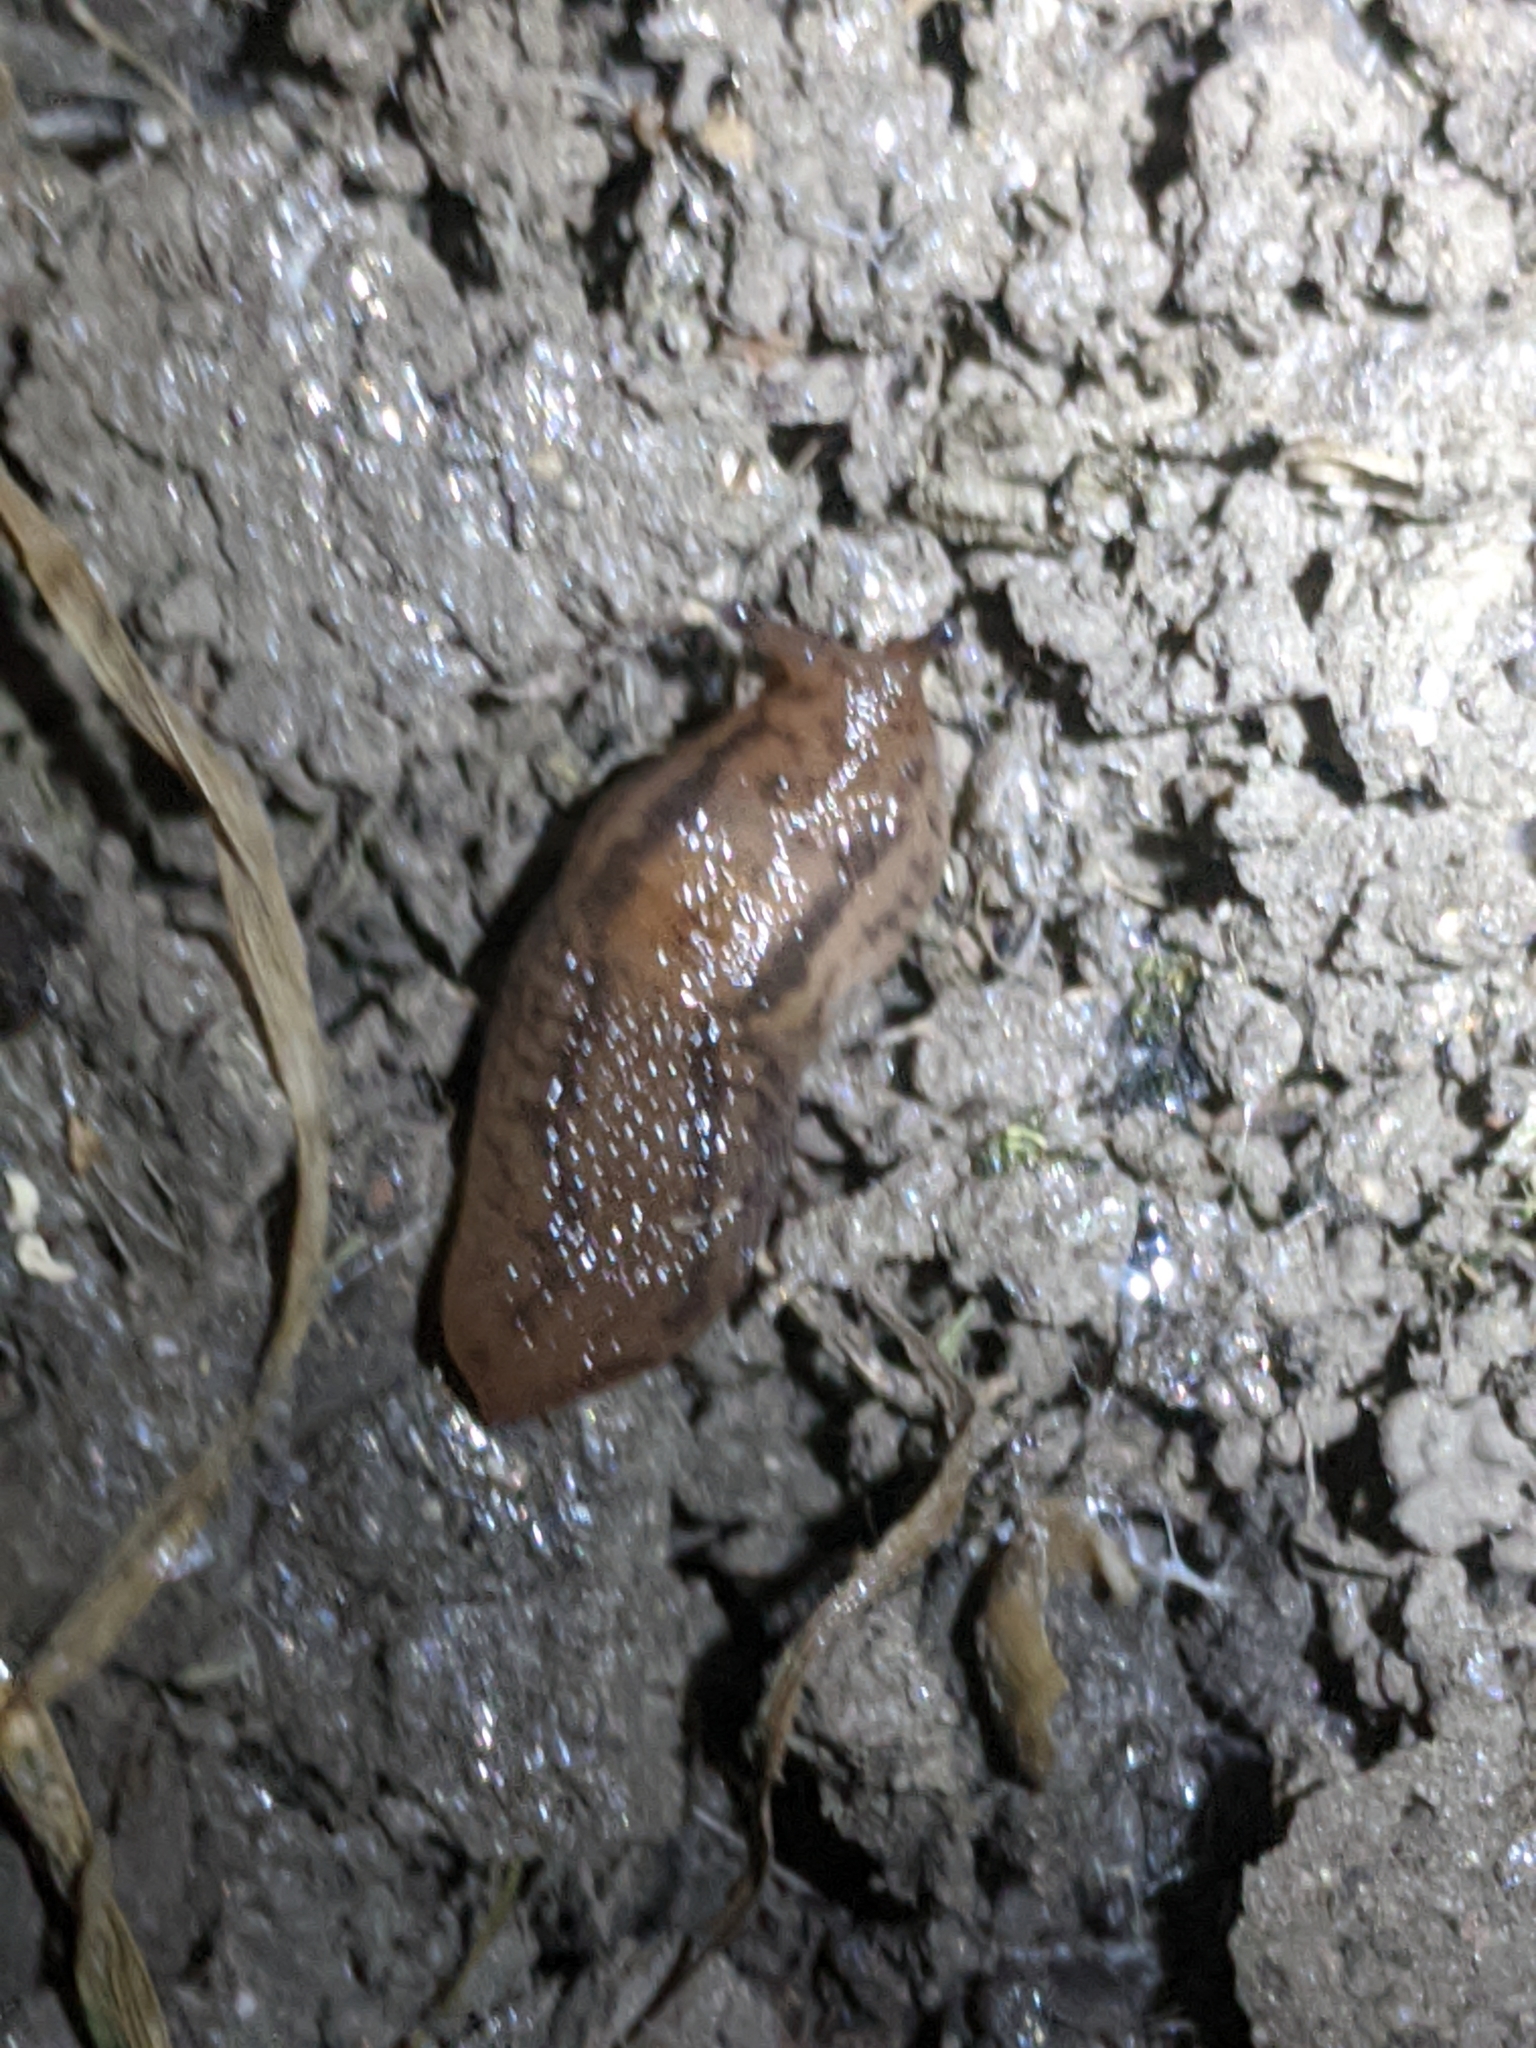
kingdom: Animalia
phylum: Mollusca
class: Gastropoda
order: Stylommatophora
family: Limacidae
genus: Ambigolimax
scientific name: Ambigolimax
